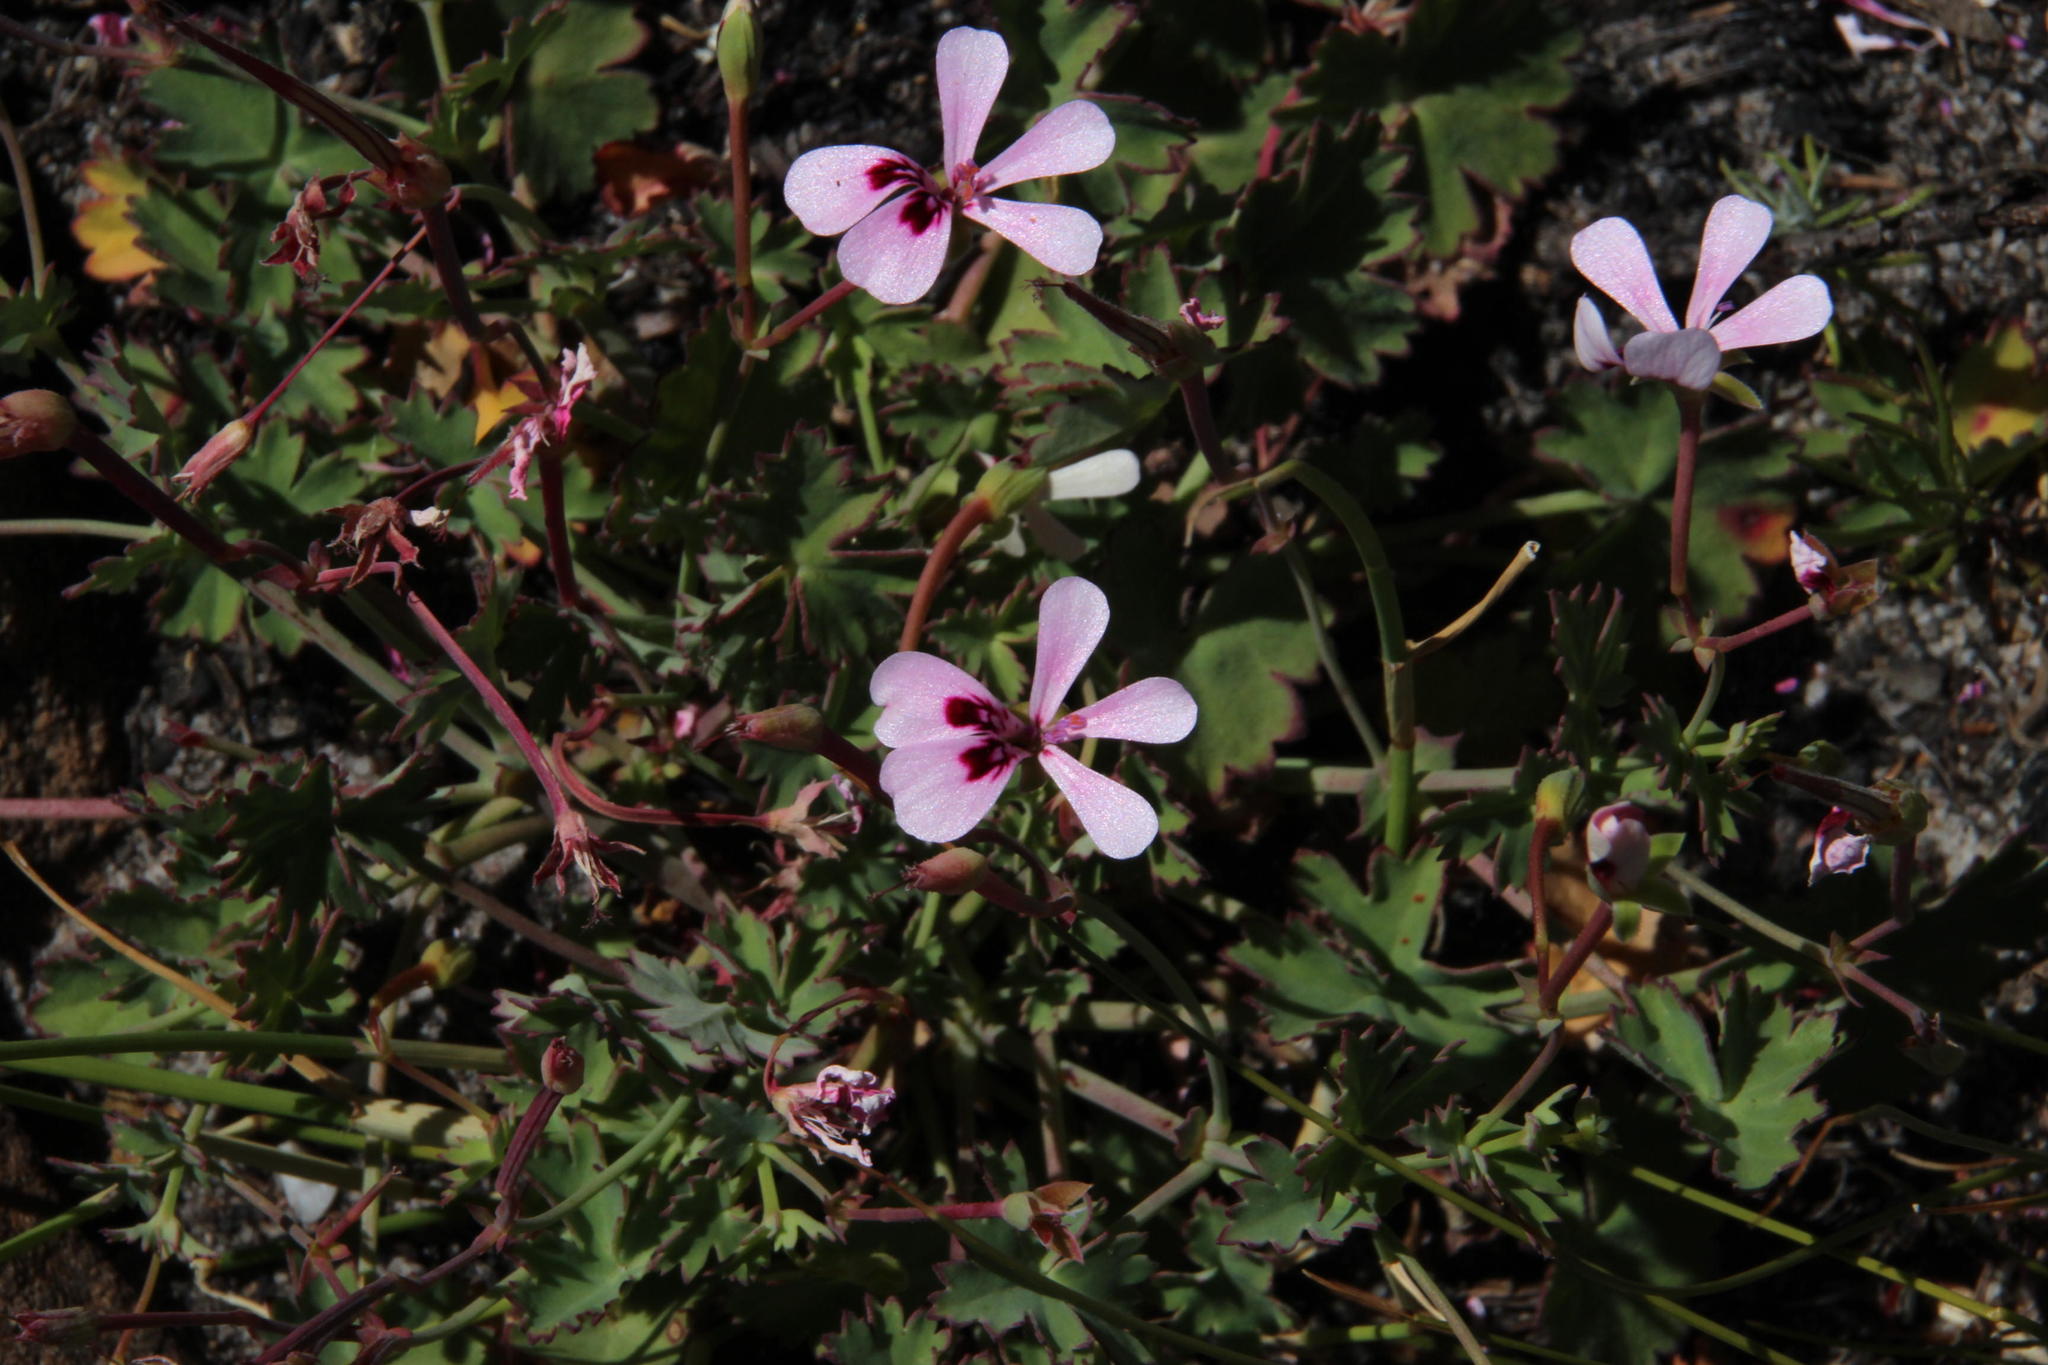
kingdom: Plantae
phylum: Tracheophyta
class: Magnoliopsida
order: Geraniales
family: Geraniaceae
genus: Pelargonium
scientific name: Pelargonium patulum
